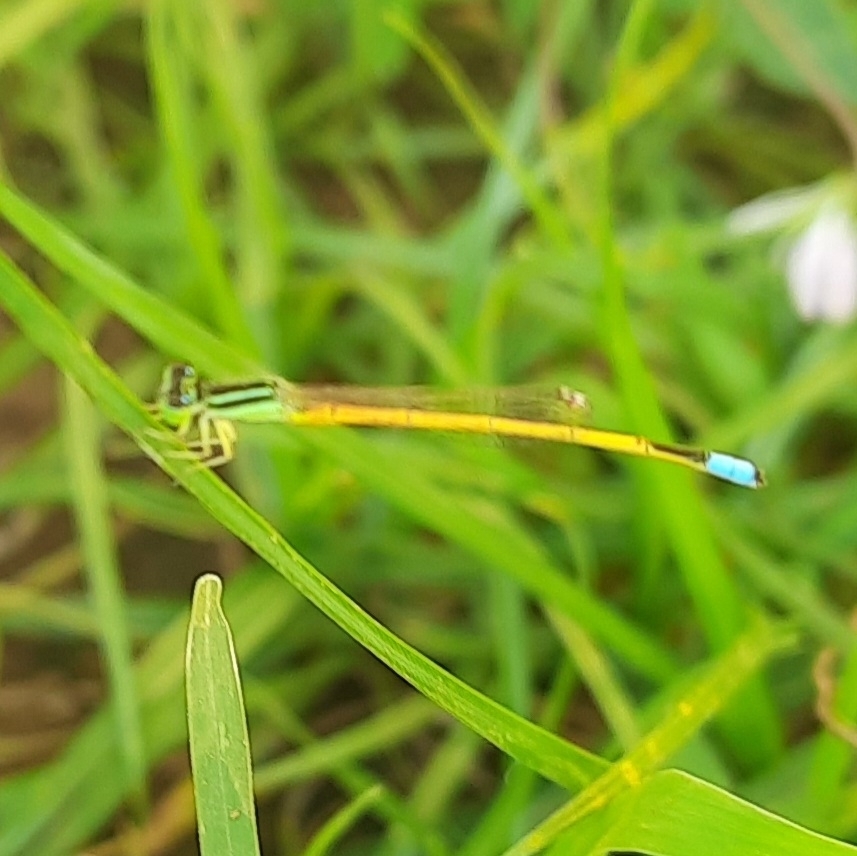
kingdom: Animalia
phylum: Arthropoda
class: Insecta
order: Odonata
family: Coenagrionidae
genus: Ischnura
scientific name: Ischnura rubilio
